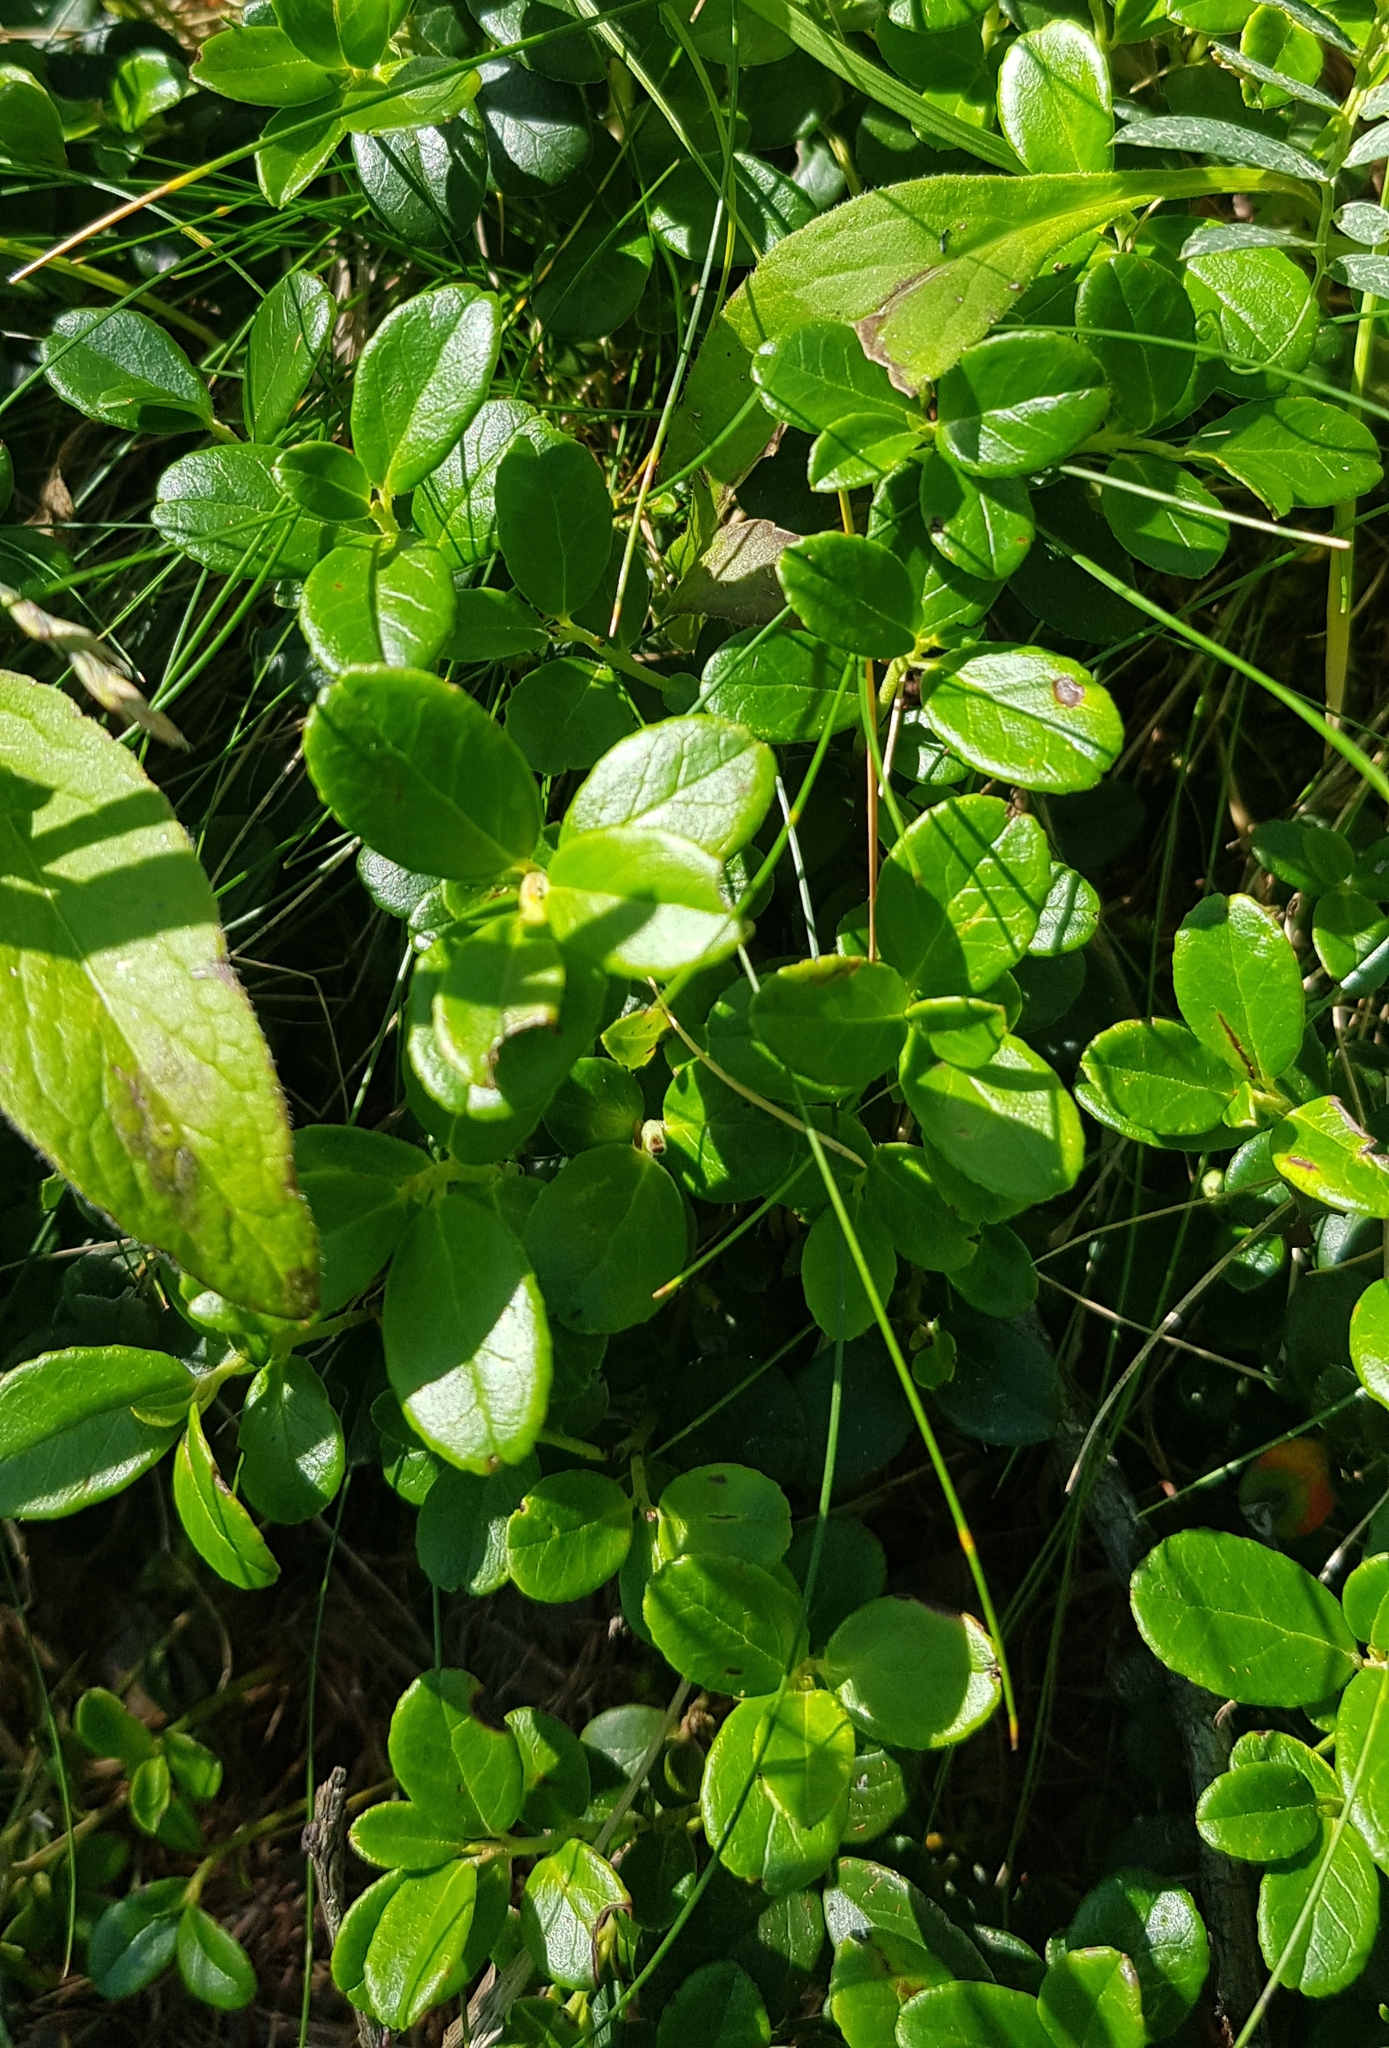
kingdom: Plantae
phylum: Tracheophyta
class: Magnoliopsida
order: Ericales
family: Ericaceae
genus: Vaccinium
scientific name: Vaccinium vitis-idaea
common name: Cowberry
